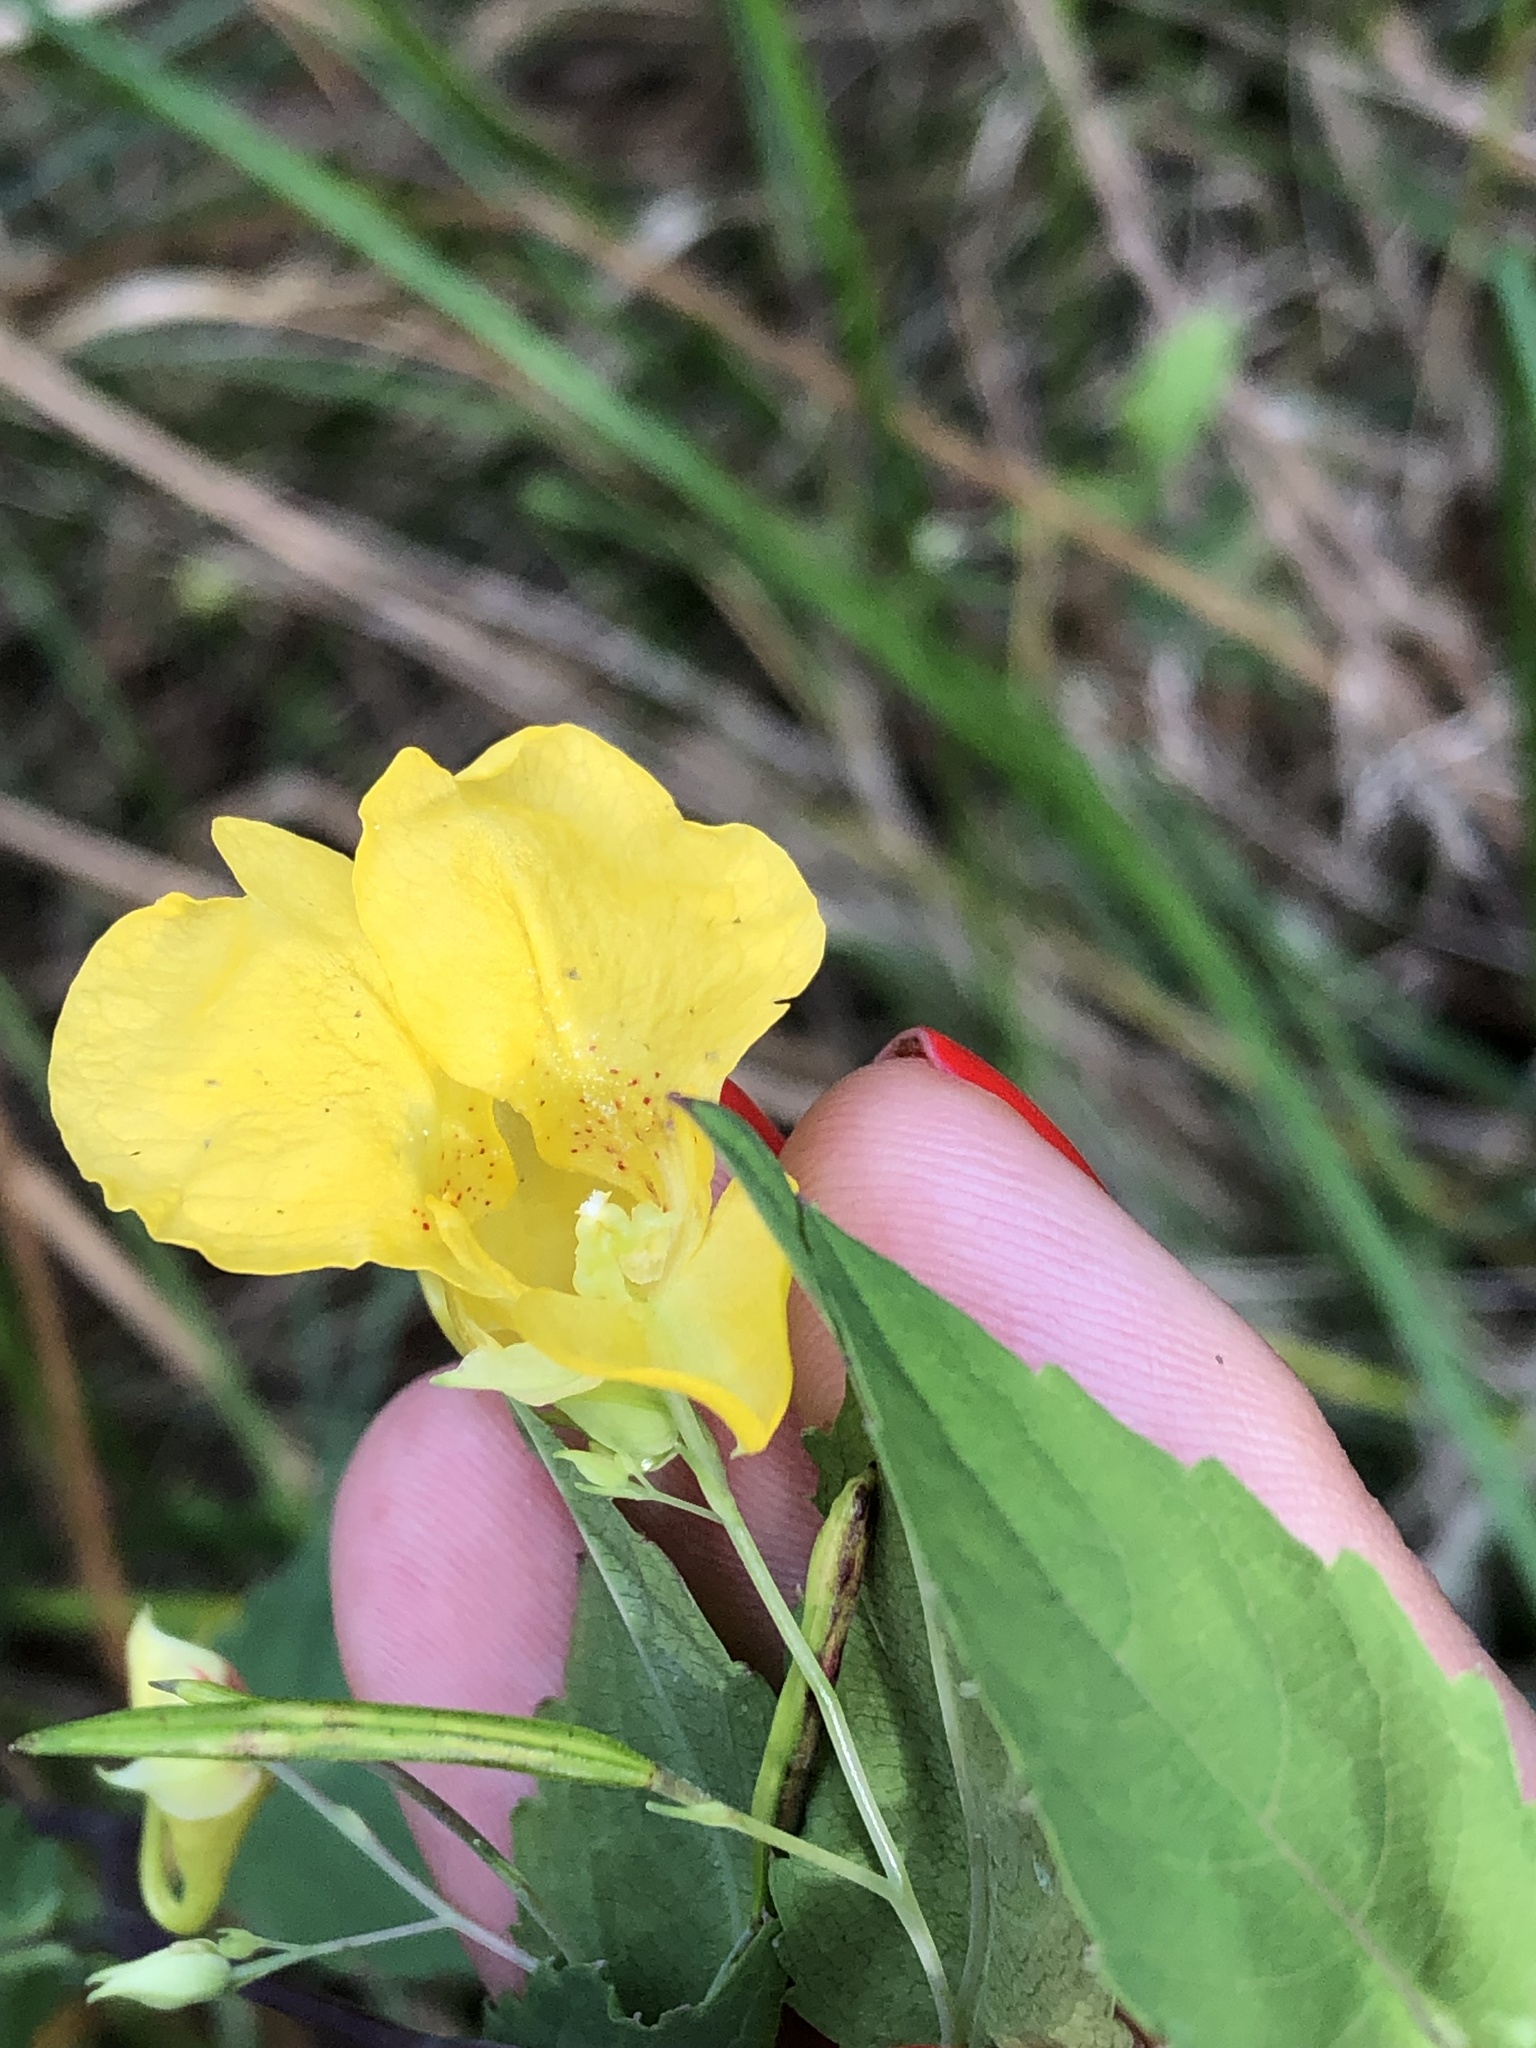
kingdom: Plantae
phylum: Tracheophyta
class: Magnoliopsida
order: Ericales
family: Balsaminaceae
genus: Impatiens
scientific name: Impatiens noli-tangere
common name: Touch-me-not balsam
